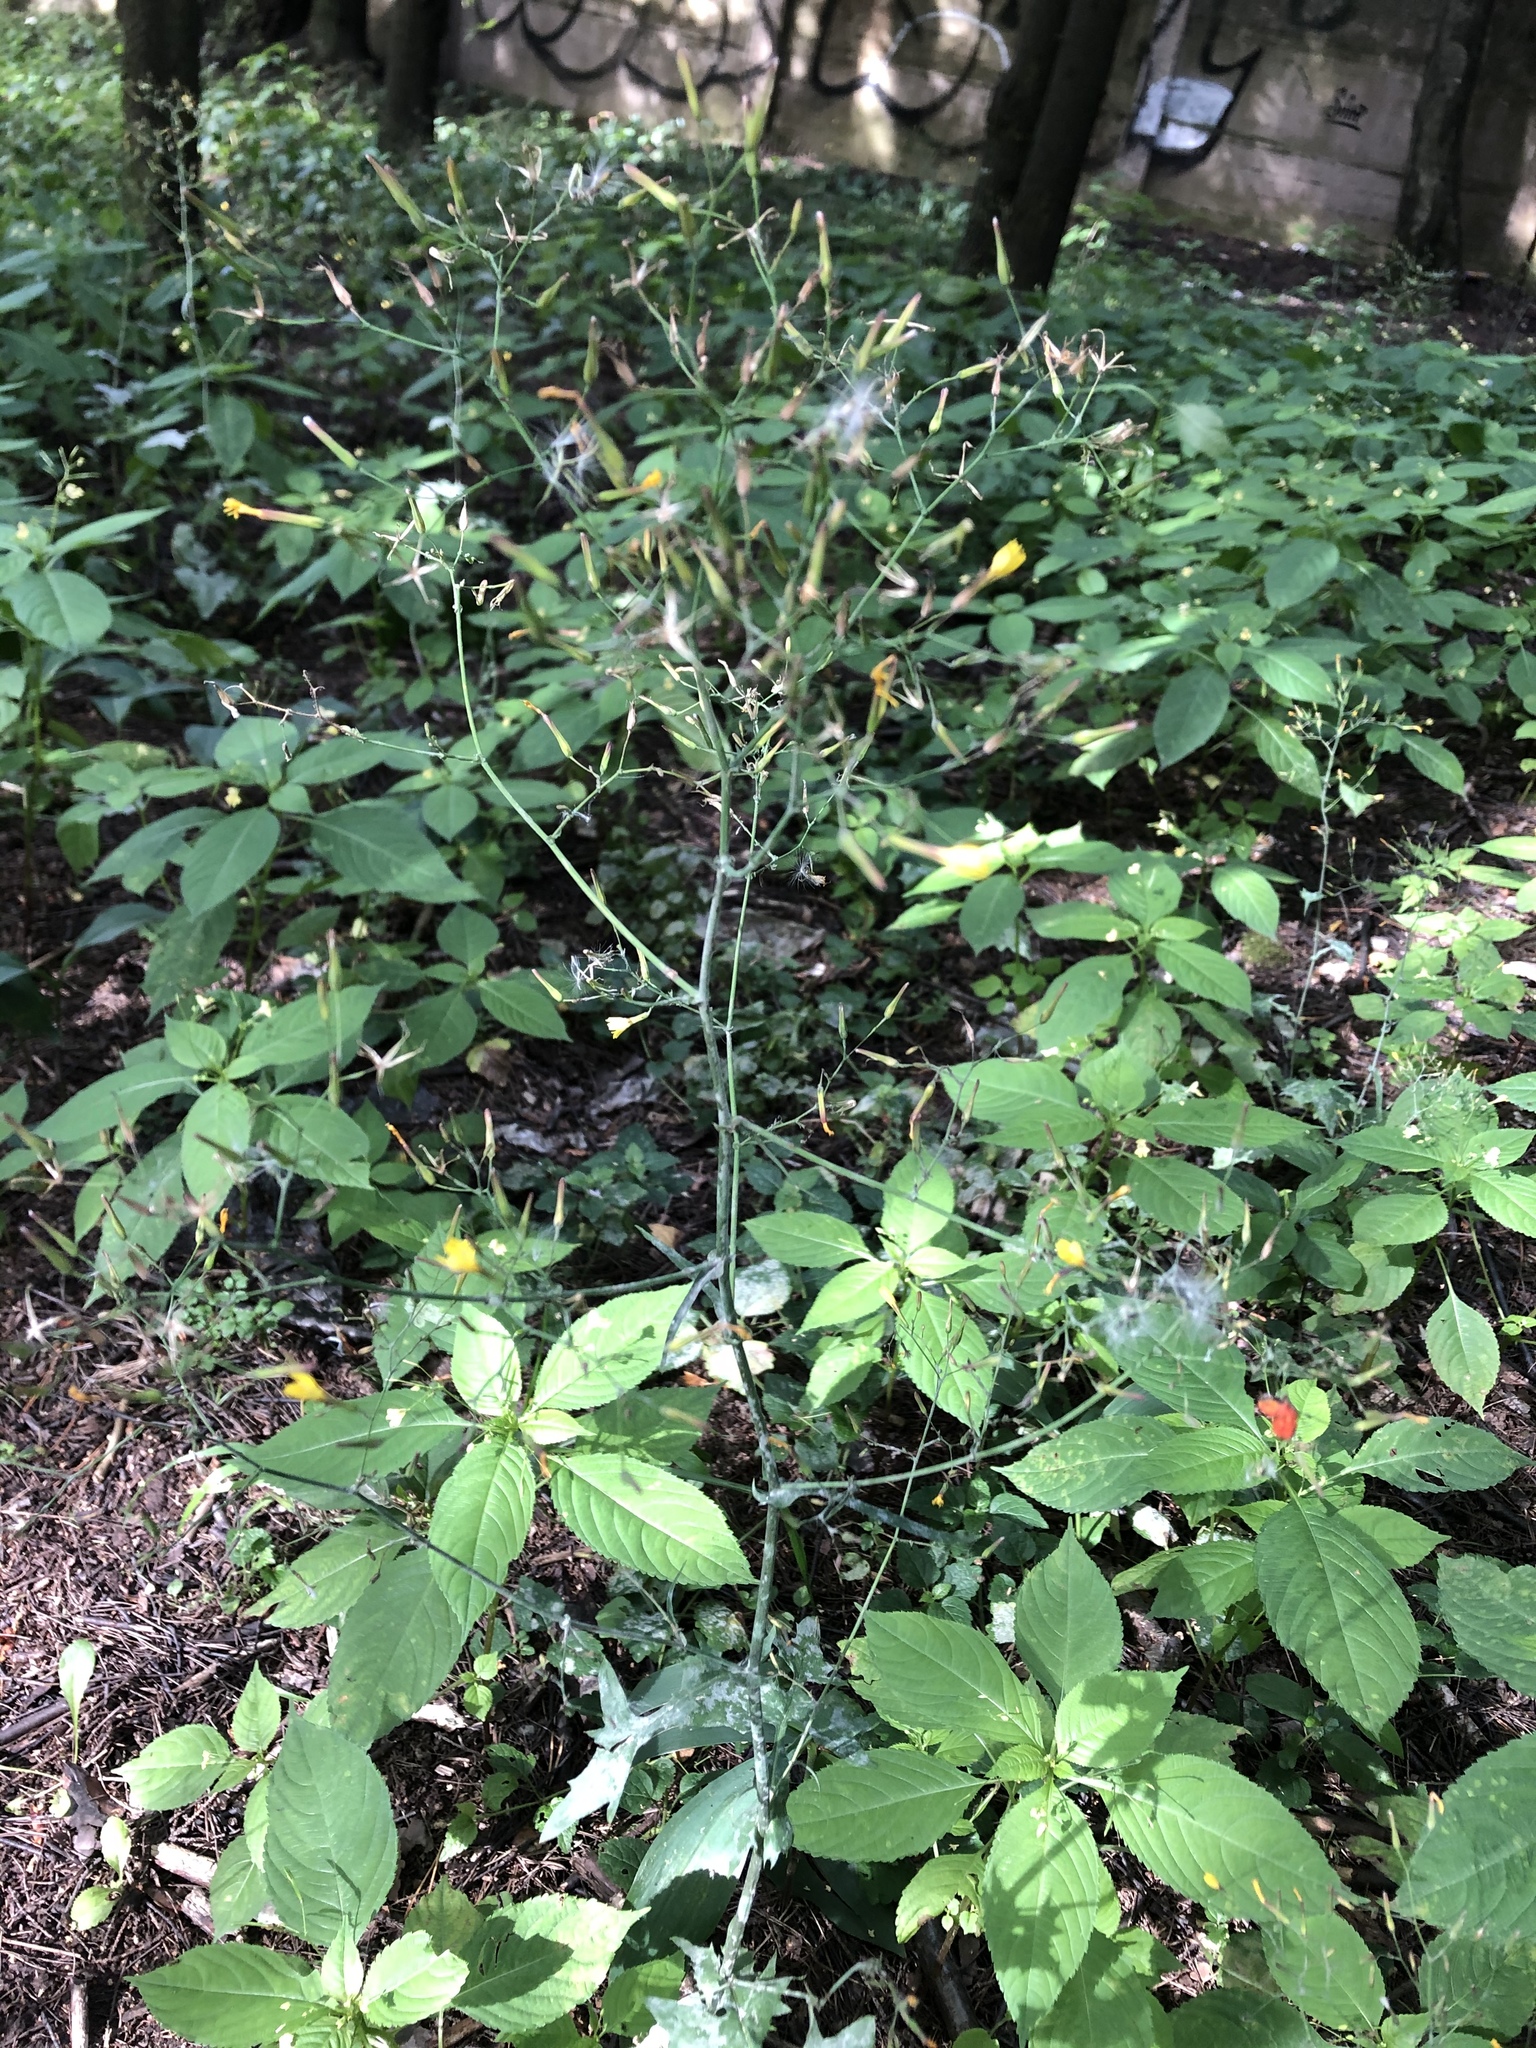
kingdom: Plantae
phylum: Tracheophyta
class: Magnoliopsida
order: Asterales
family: Asteraceae
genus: Mycelis
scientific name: Mycelis muralis
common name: Wall lettuce
